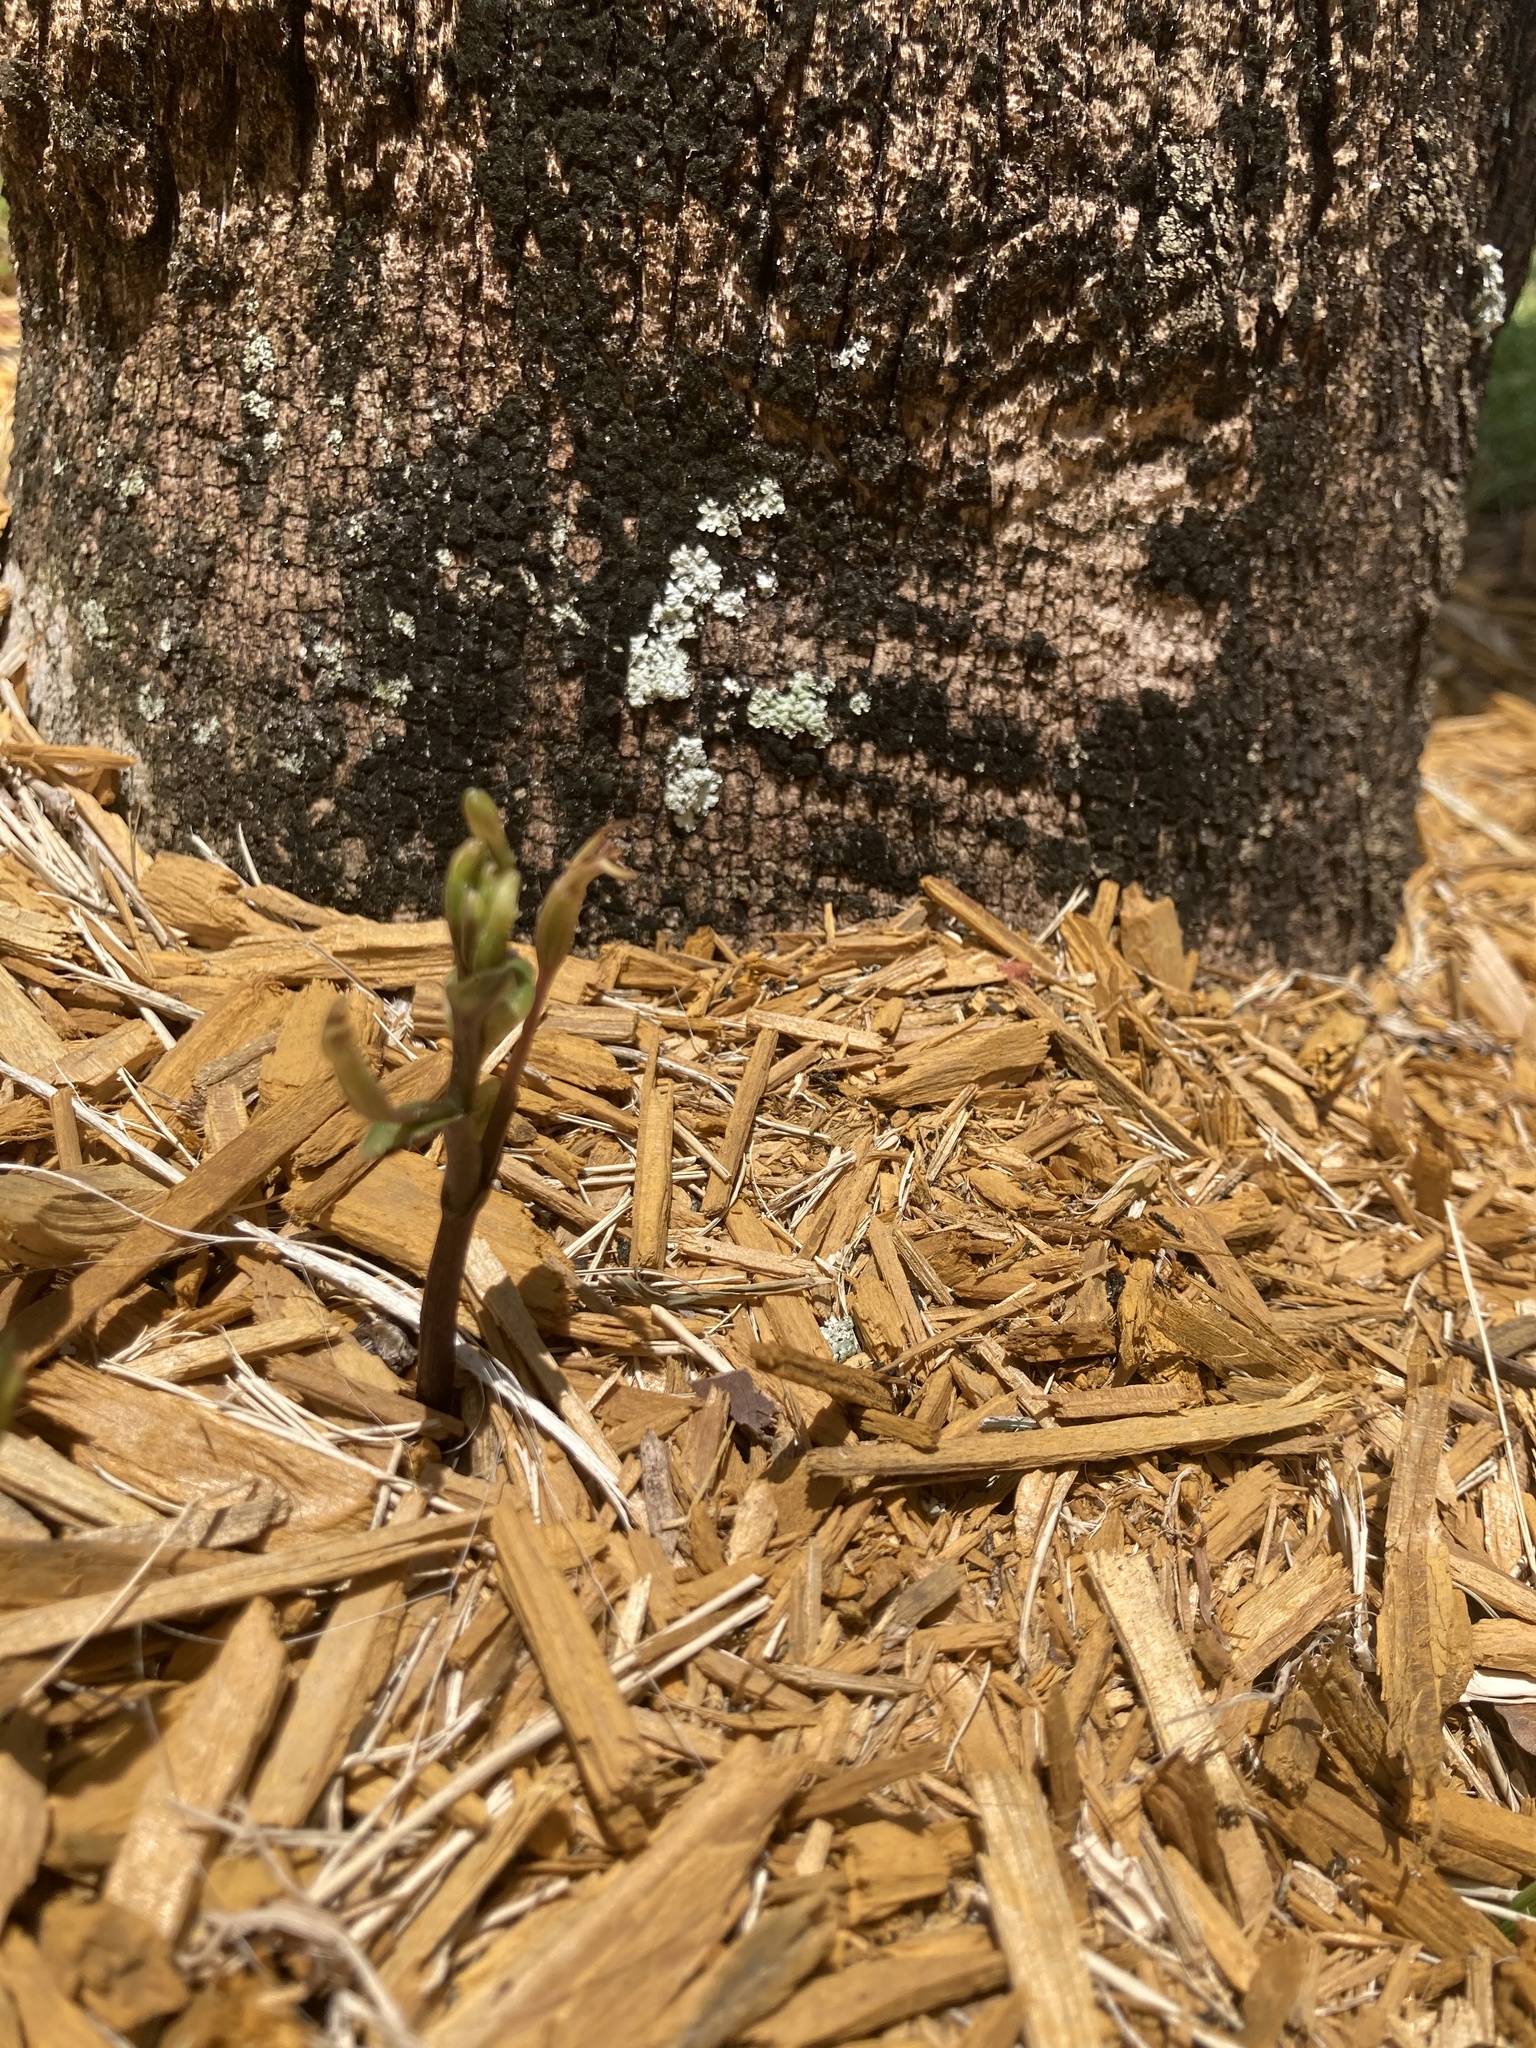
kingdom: Plantae
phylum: Tracheophyta
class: Liliopsida
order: Asparagales
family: Orchidaceae
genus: Triphora
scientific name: Triphora gentianoides
